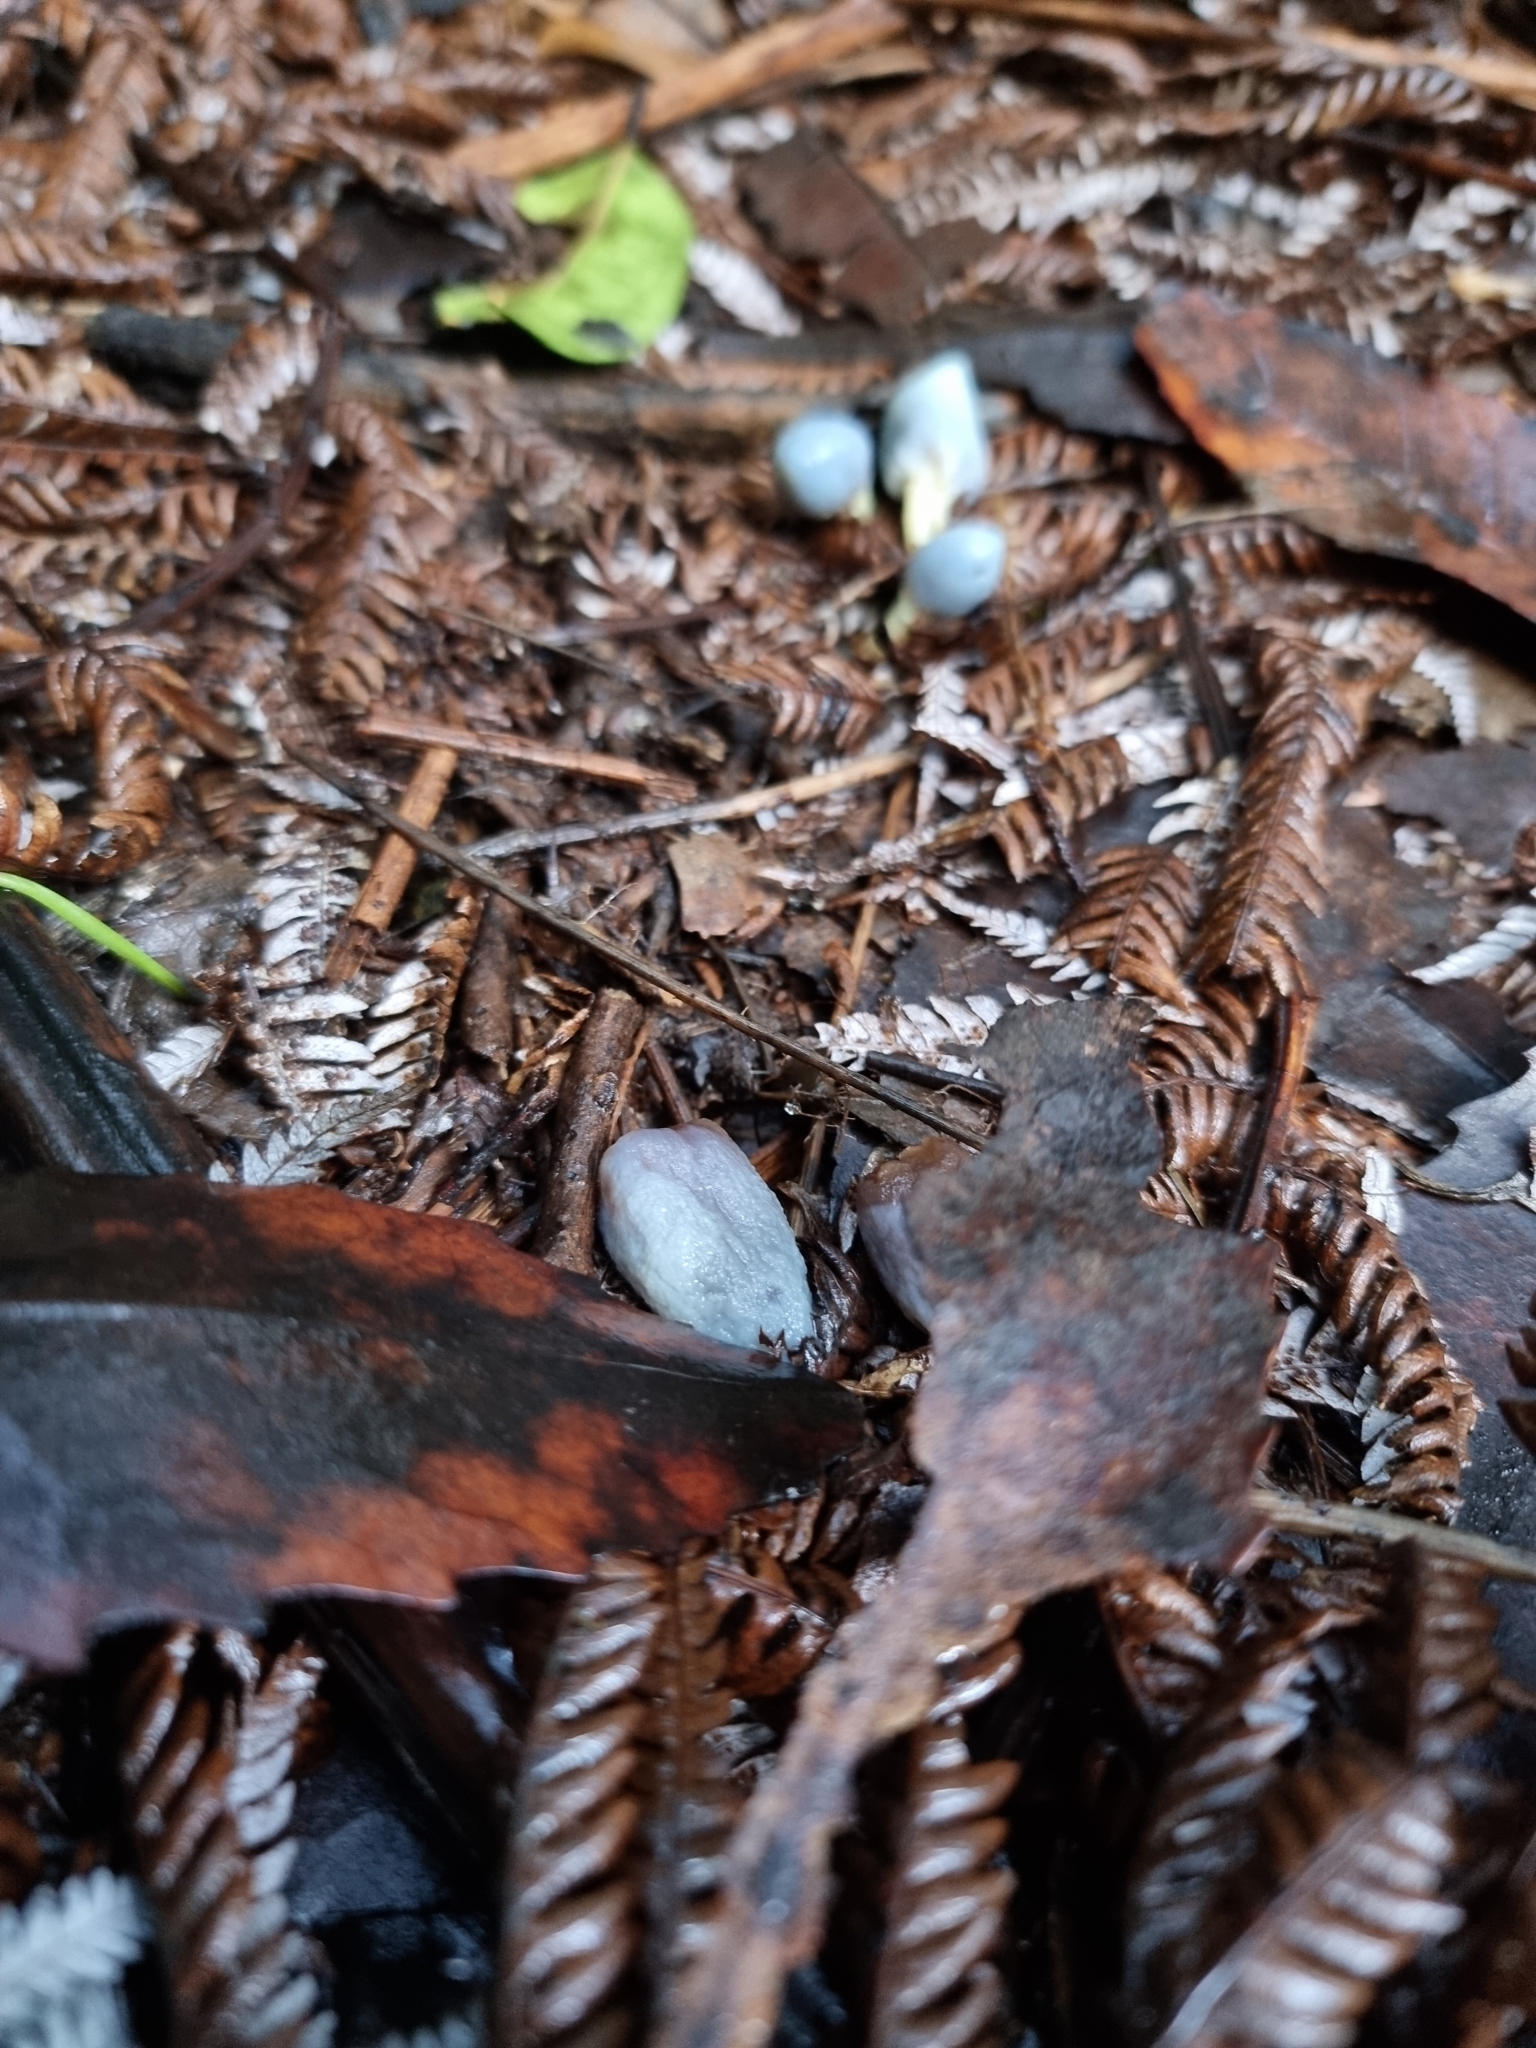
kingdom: Fungi
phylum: Basidiomycota
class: Agaricomycetes
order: Agaricales
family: Agaricaceae
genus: Clavogaster
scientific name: Clavogaster virescens
